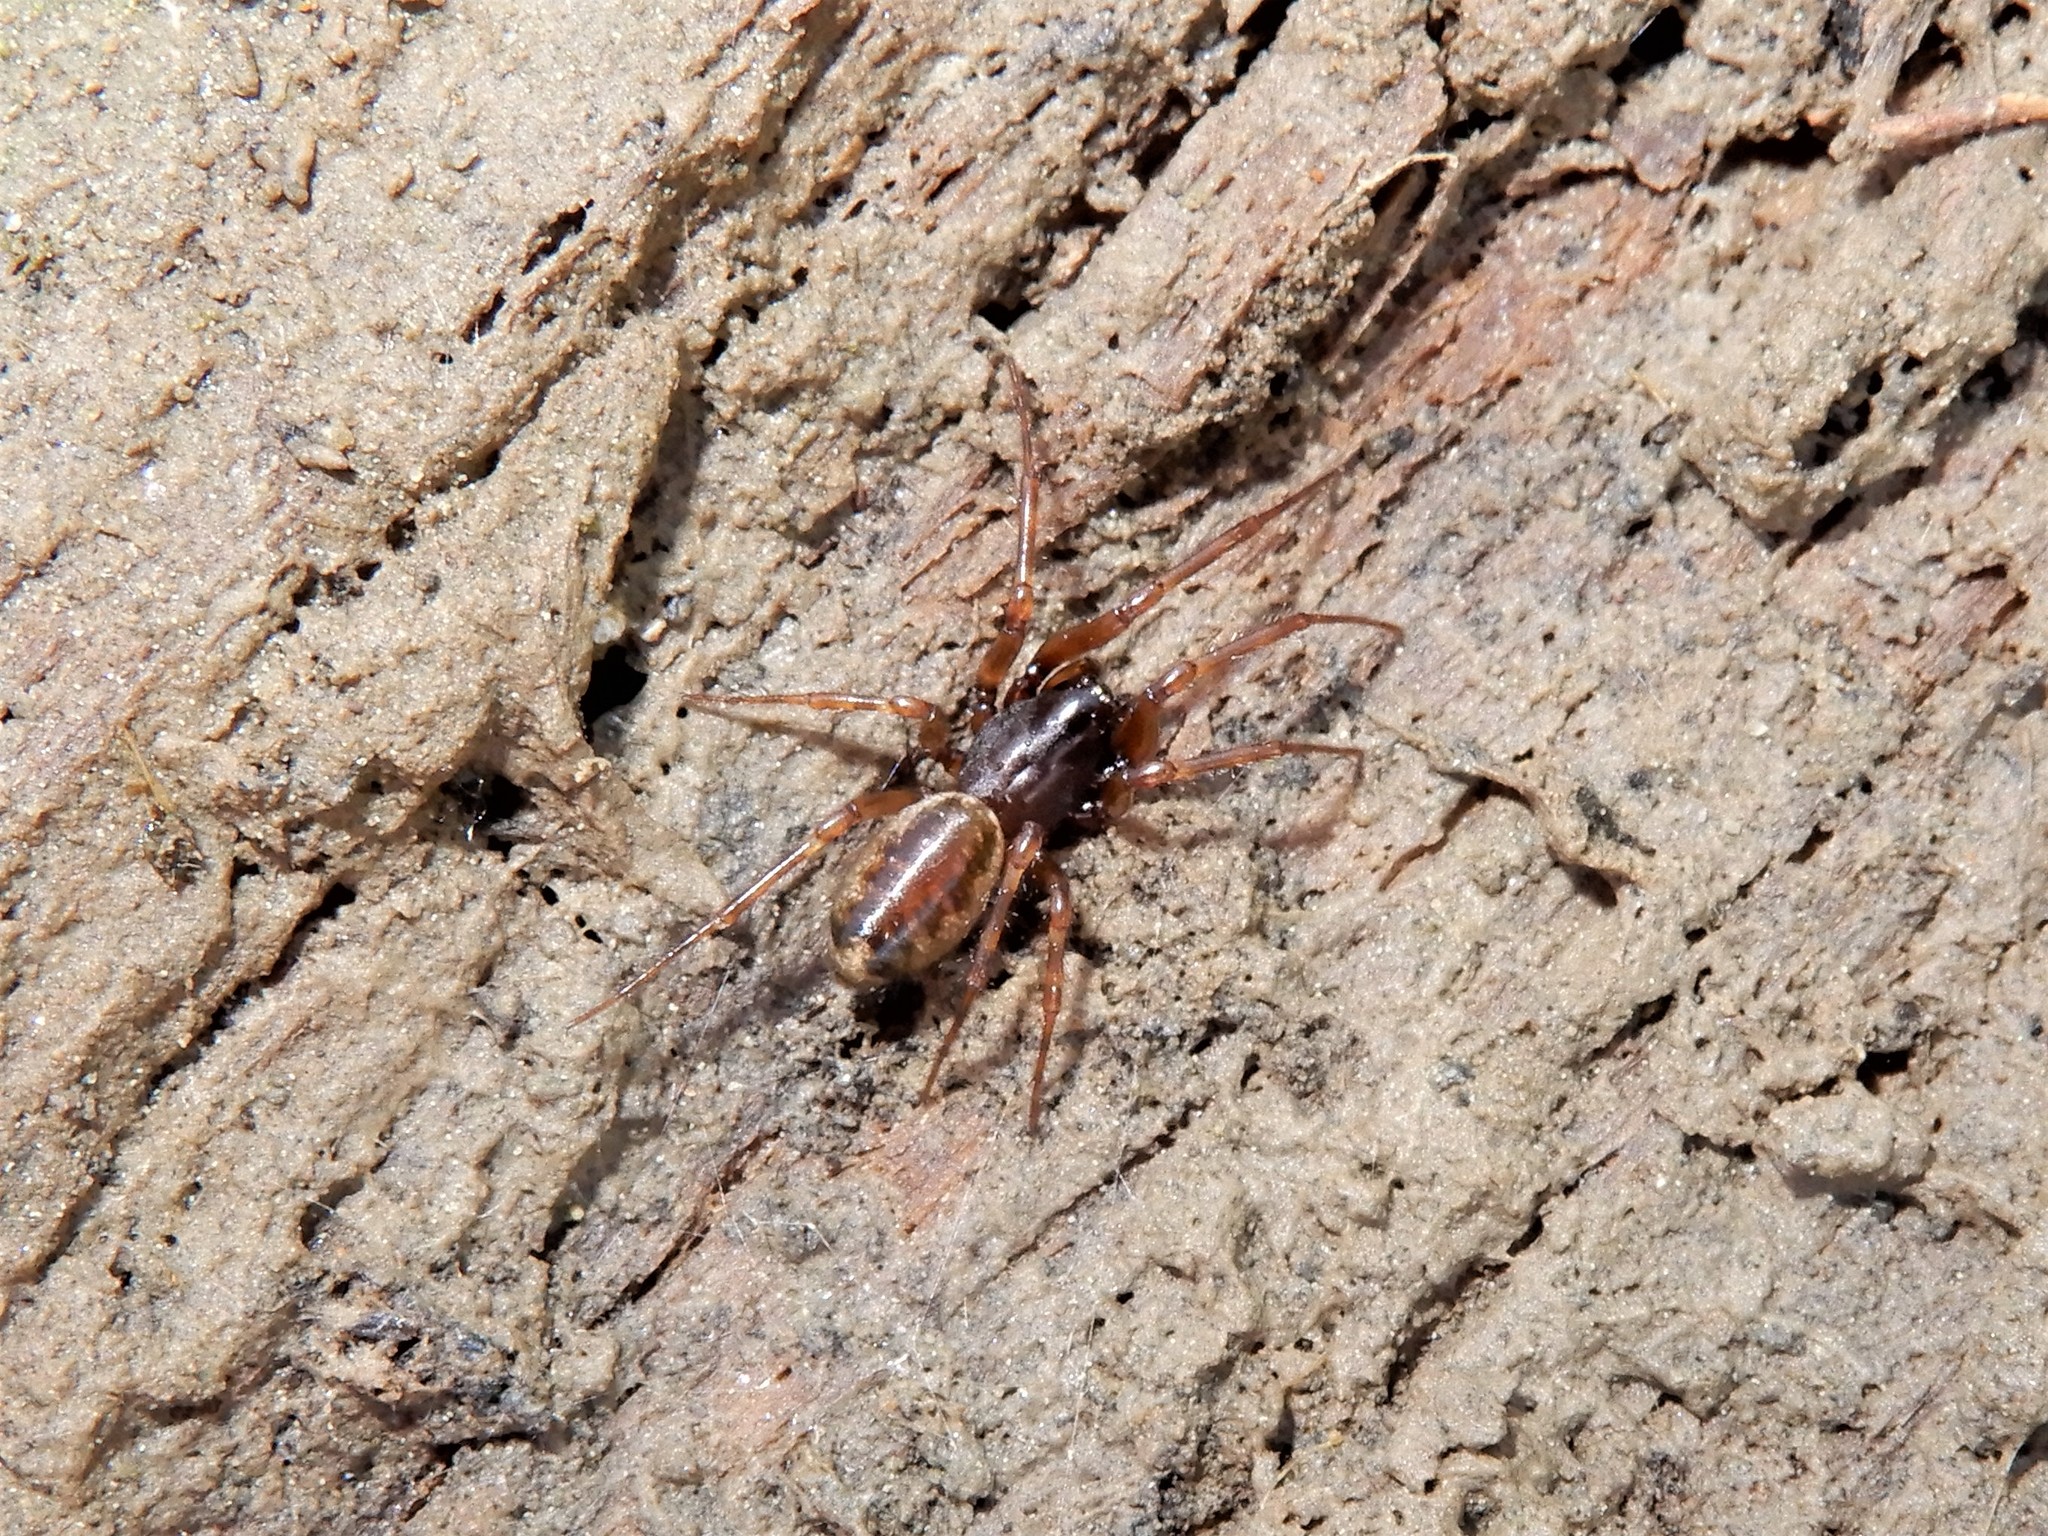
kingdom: Animalia
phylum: Arthropoda
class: Arachnida
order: Araneae
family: Linyphiidae
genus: Haplinis
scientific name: Haplinis attenuata
